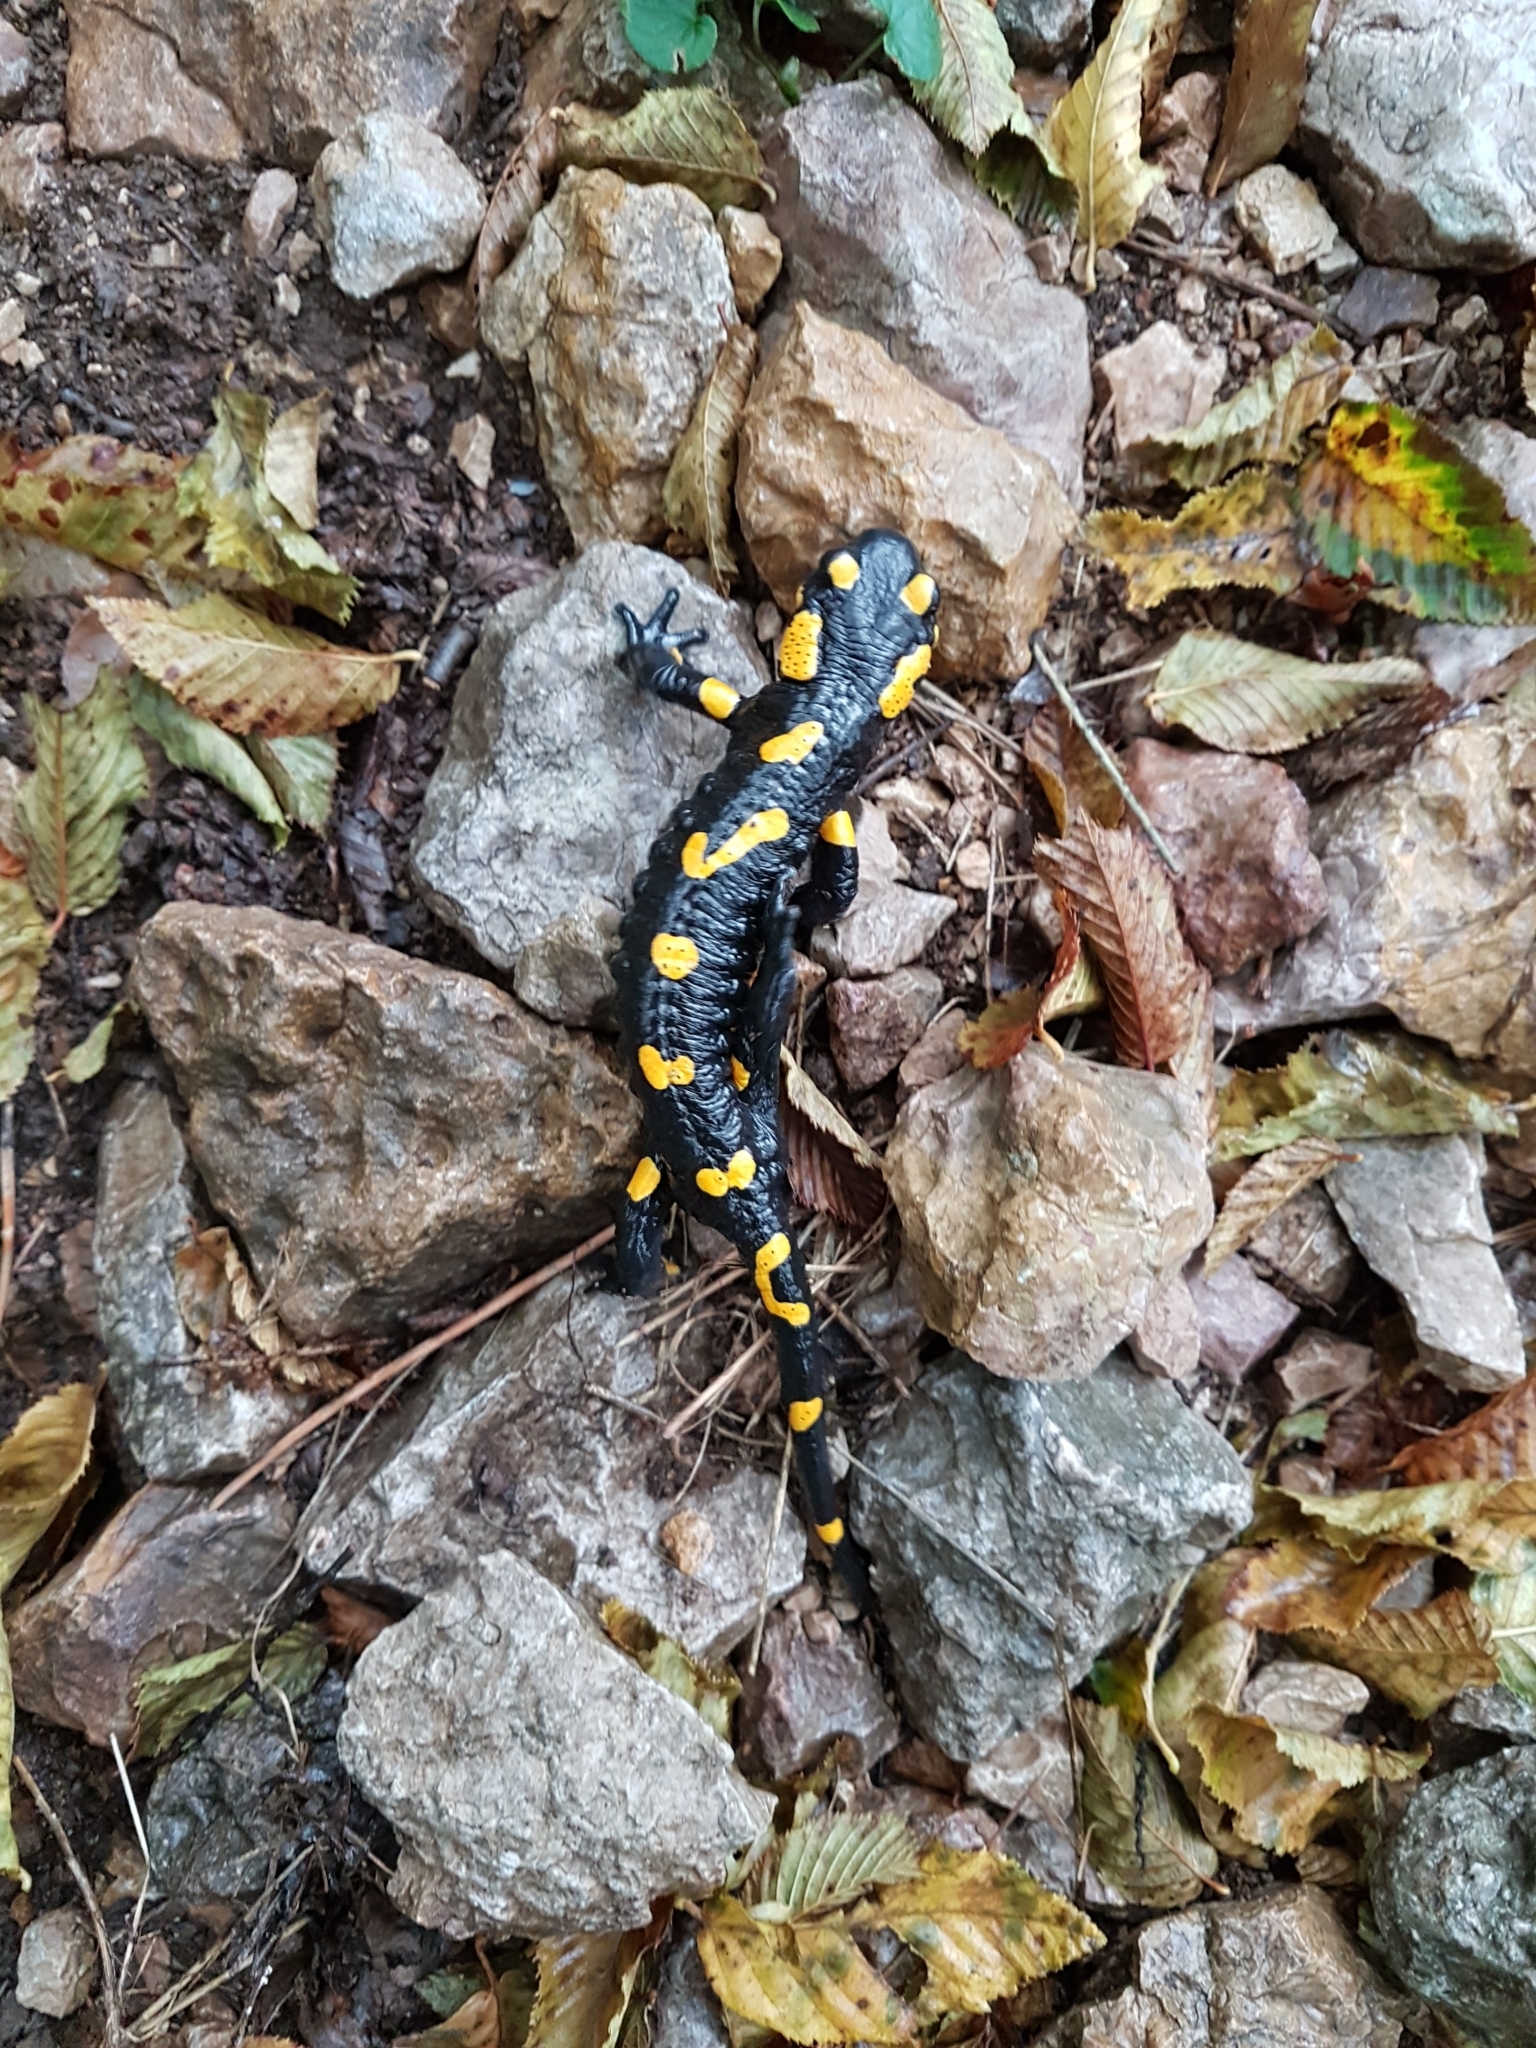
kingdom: Animalia
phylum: Chordata
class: Amphibia
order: Caudata
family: Salamandridae
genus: Salamandra
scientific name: Salamandra salamandra
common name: Fire salamander
